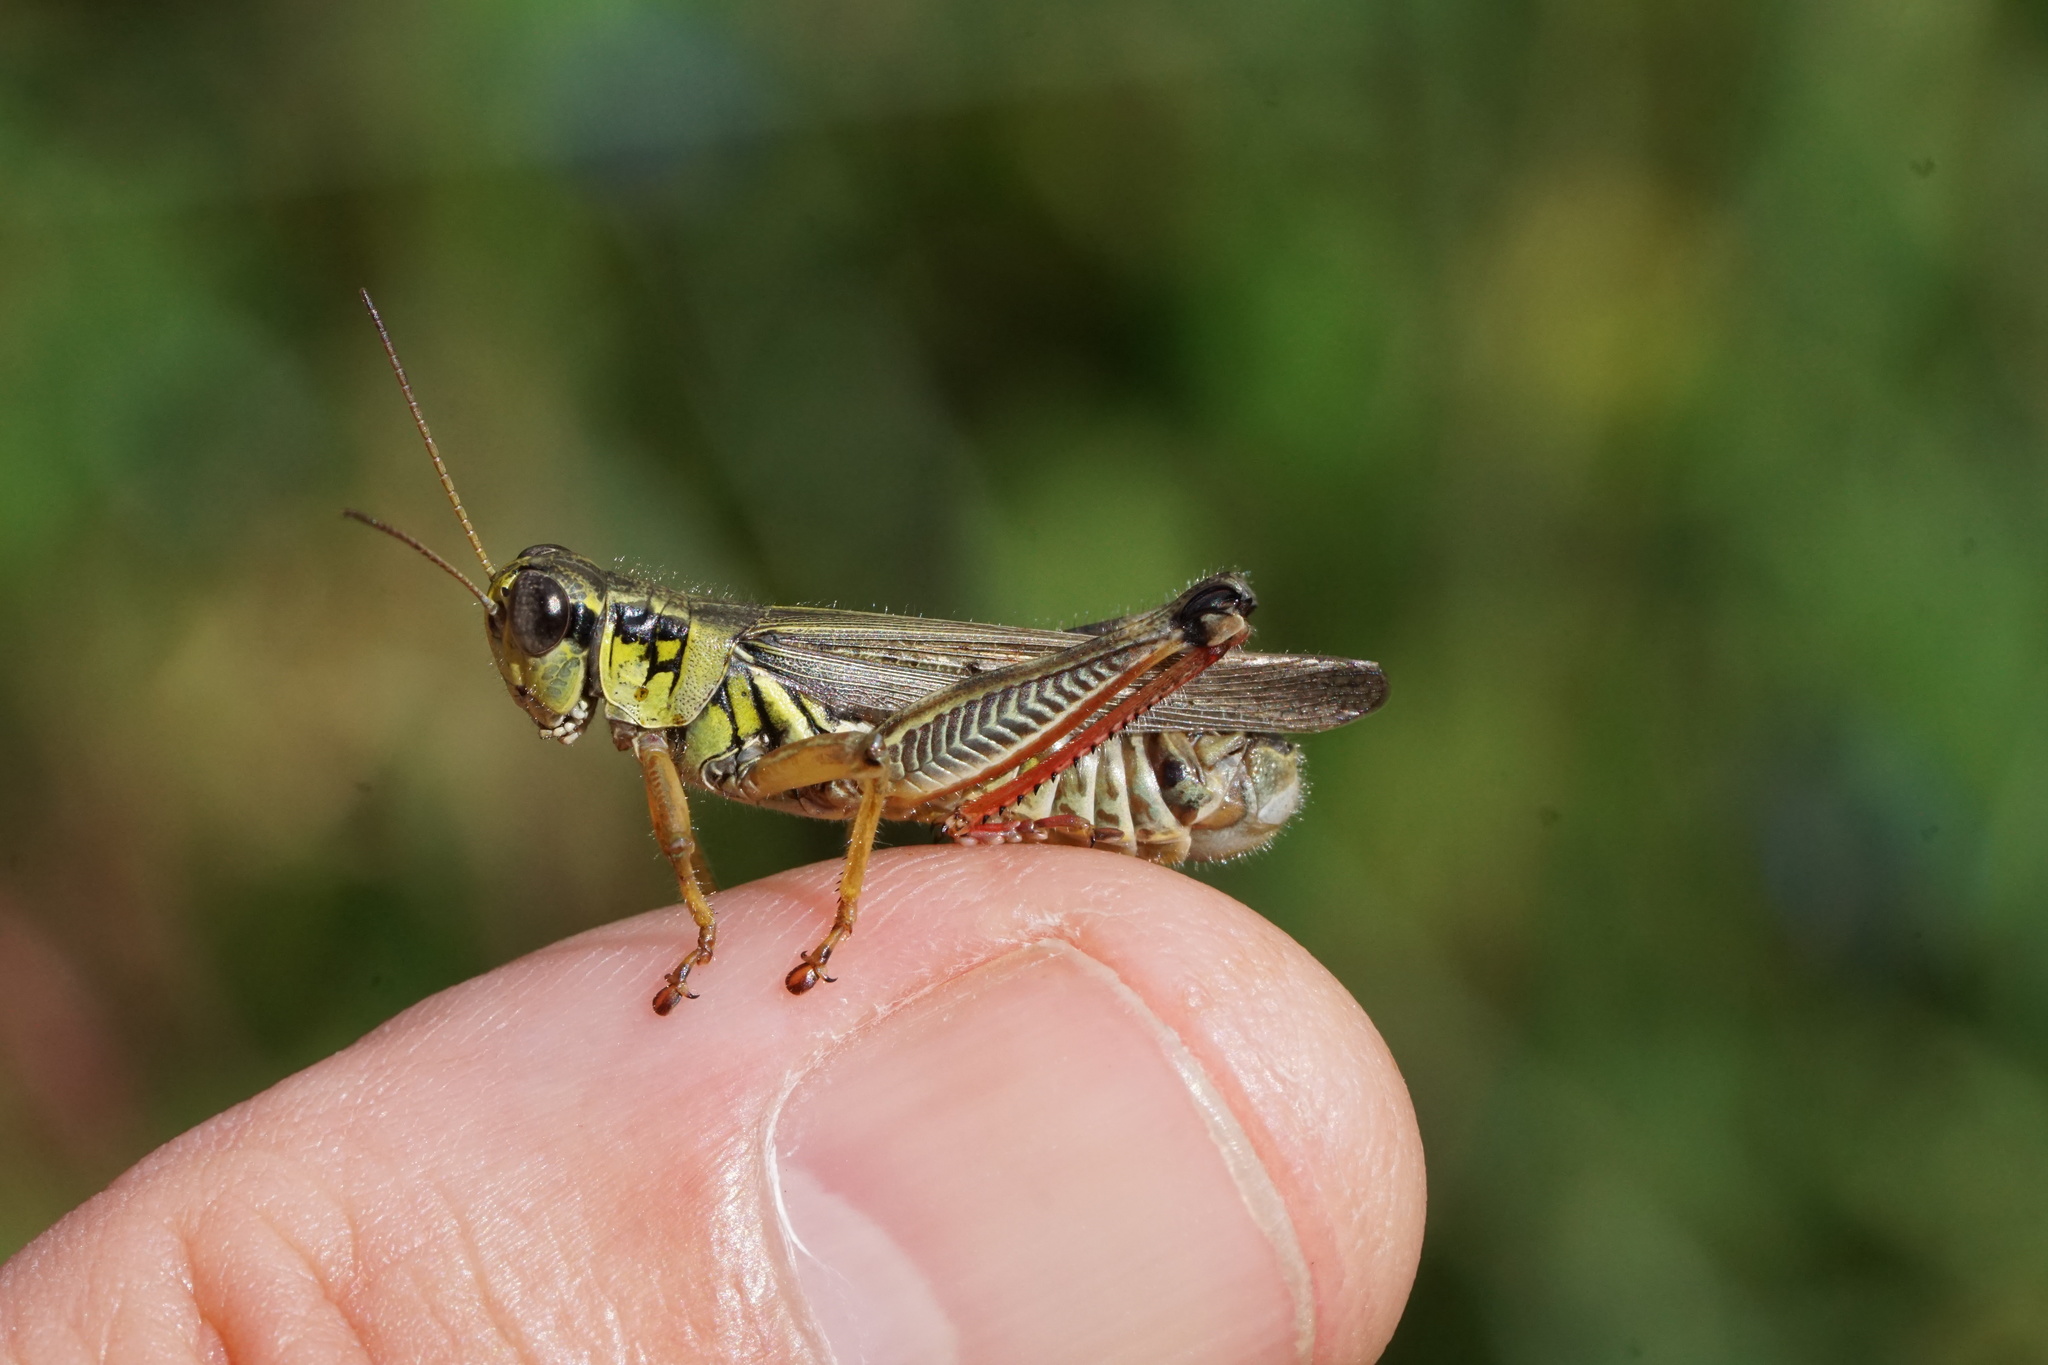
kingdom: Animalia
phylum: Arthropoda
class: Insecta
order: Orthoptera
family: Acrididae
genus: Melanoplus
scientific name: Melanoplus femurrubrum
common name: Red-legged grasshopper
